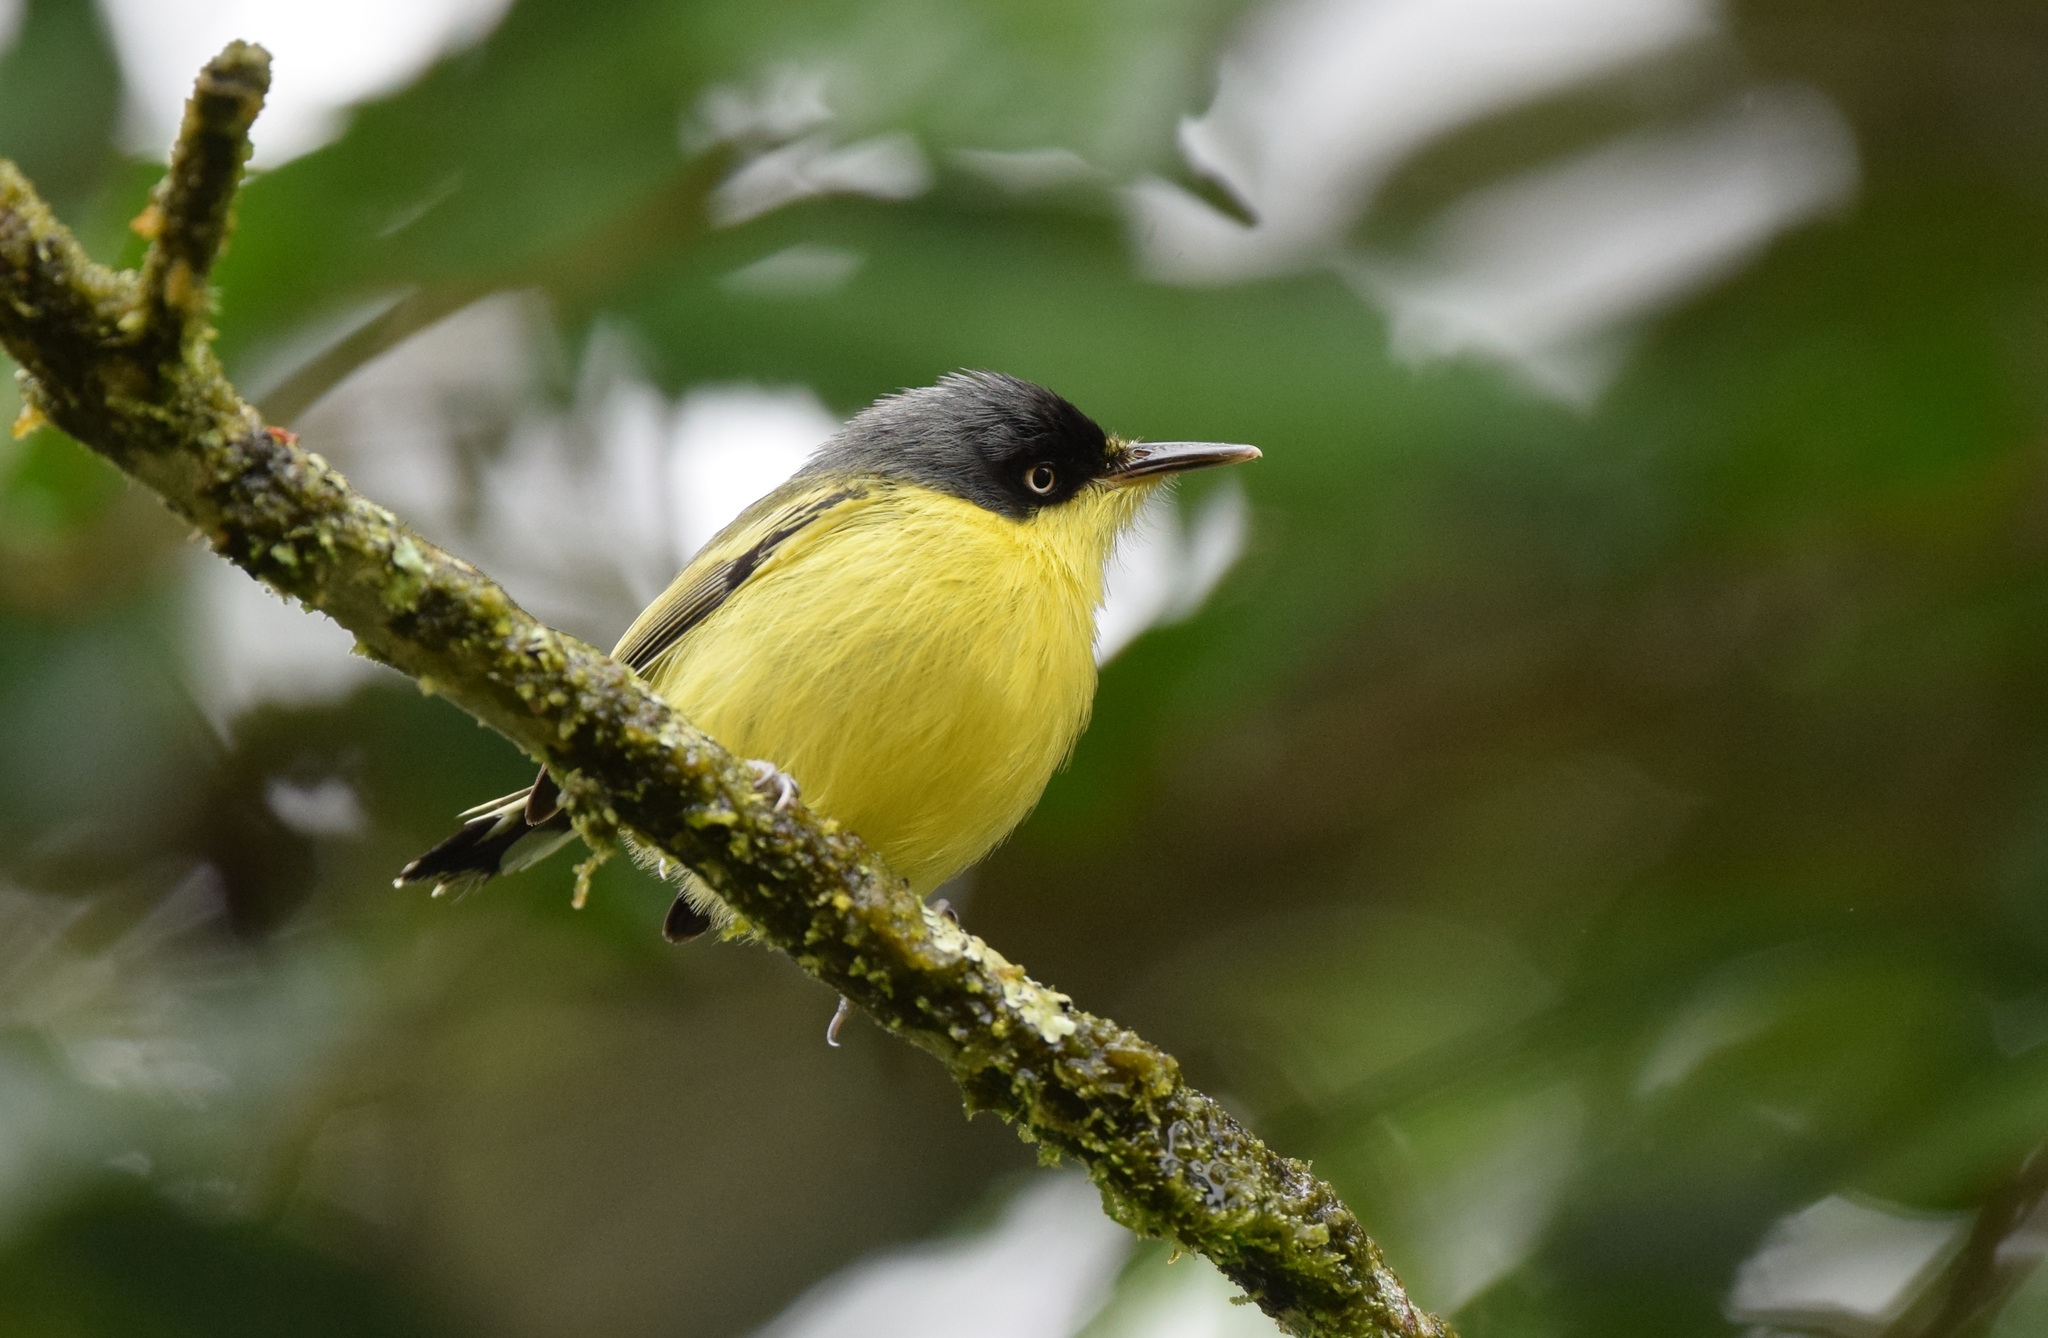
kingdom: Animalia
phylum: Chordata
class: Aves
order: Passeriformes
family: Tyrannidae
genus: Todirostrum
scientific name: Todirostrum cinereum
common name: Common tody-flycatcher
